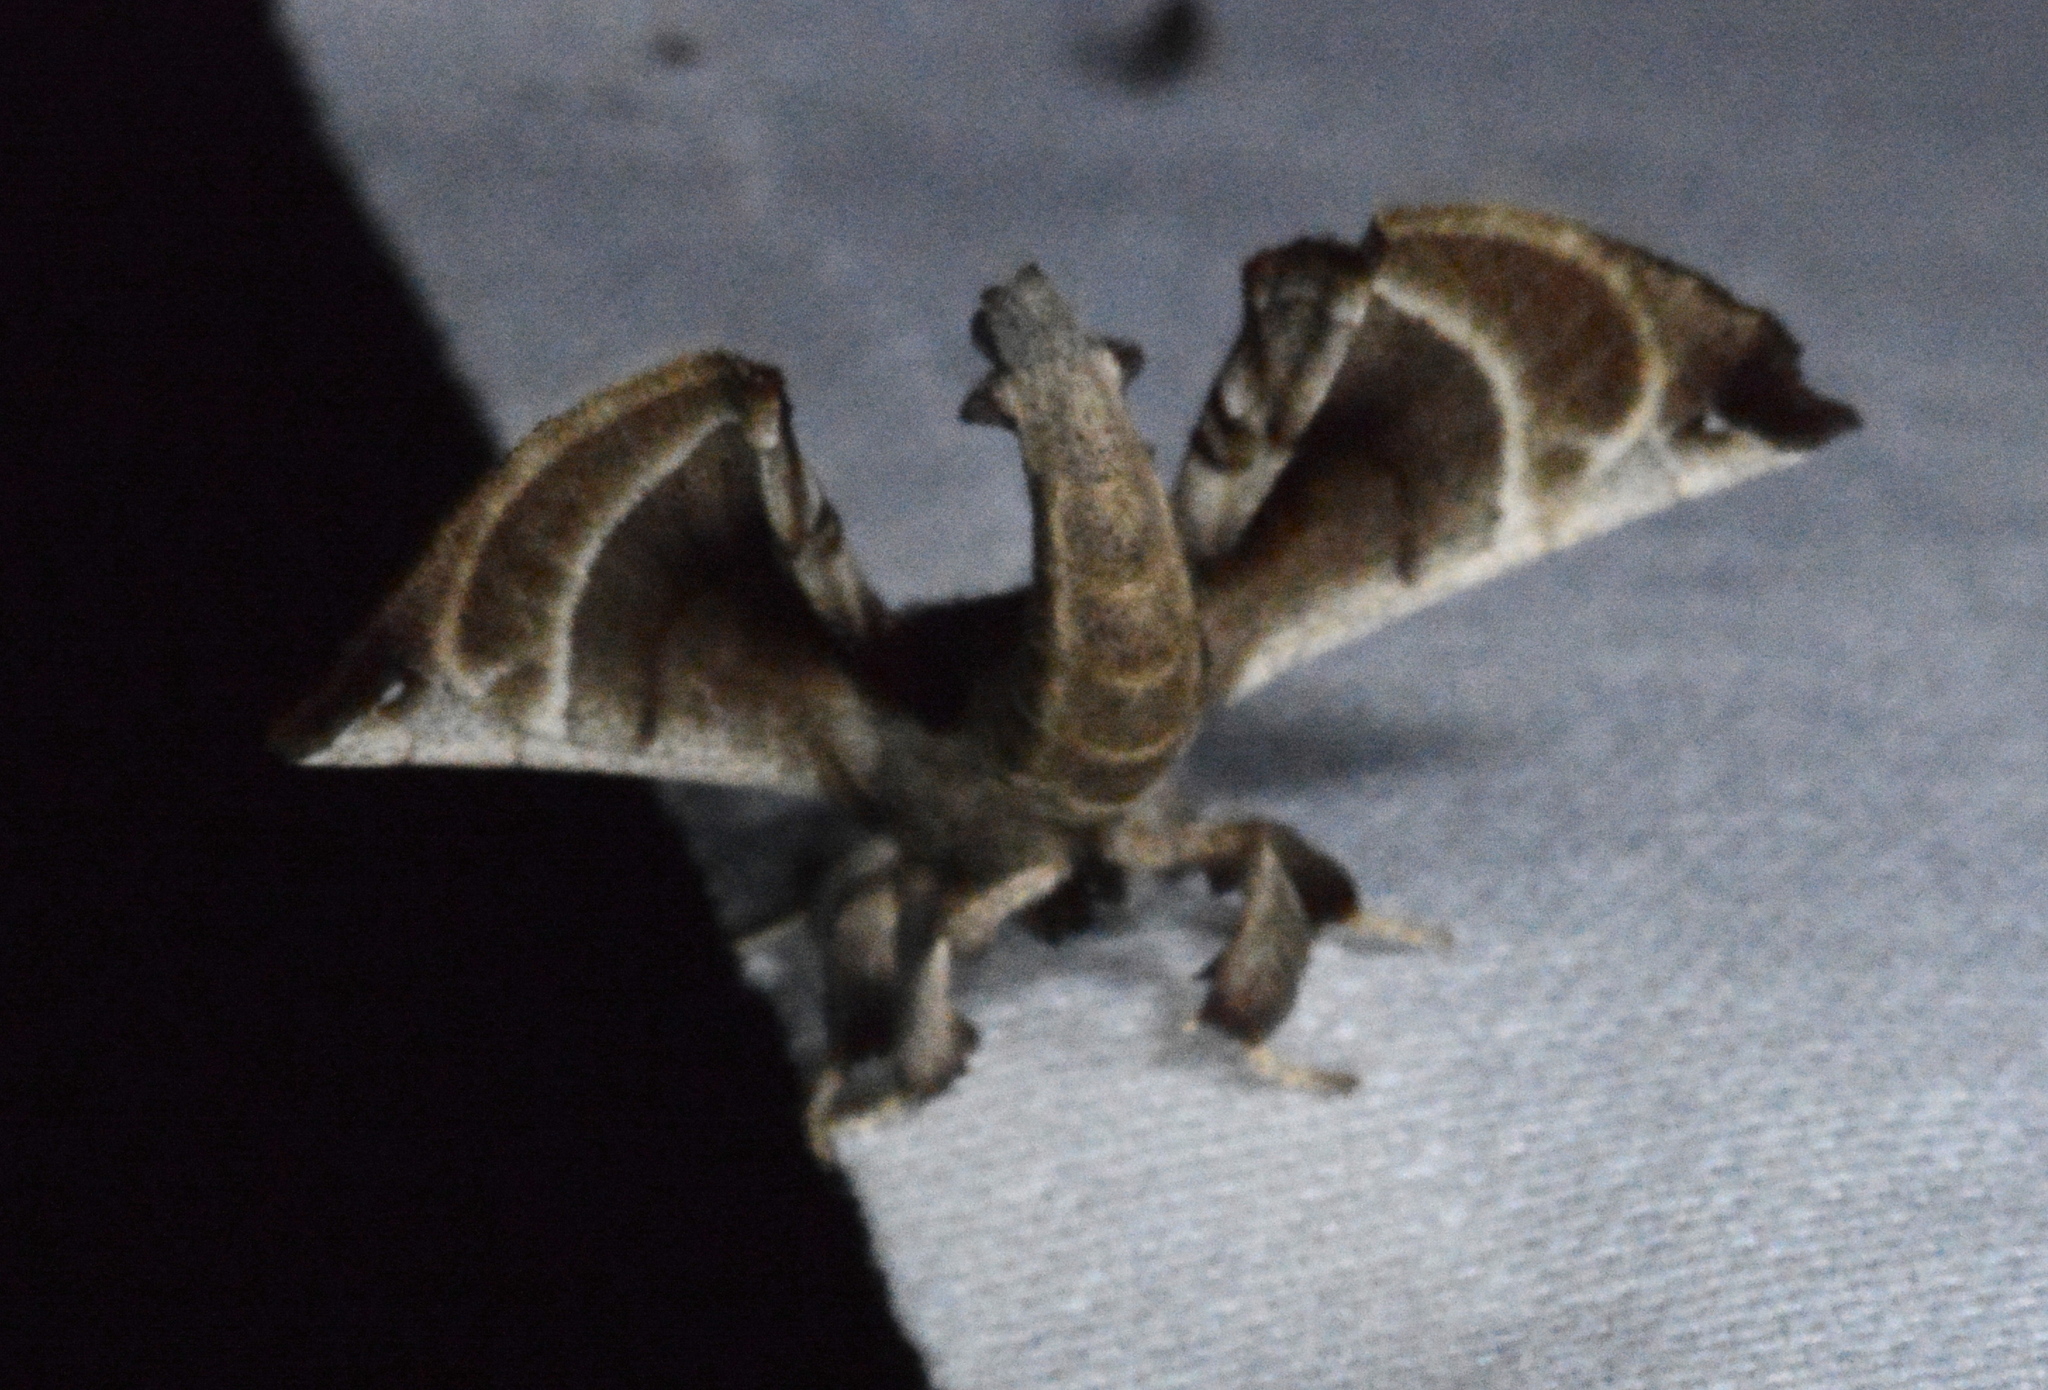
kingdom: Animalia
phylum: Arthropoda
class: Insecta
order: Lepidoptera
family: Apatelodidae
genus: Hygrochroa
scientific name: Hygrochroa Apatelodes torrefacta
